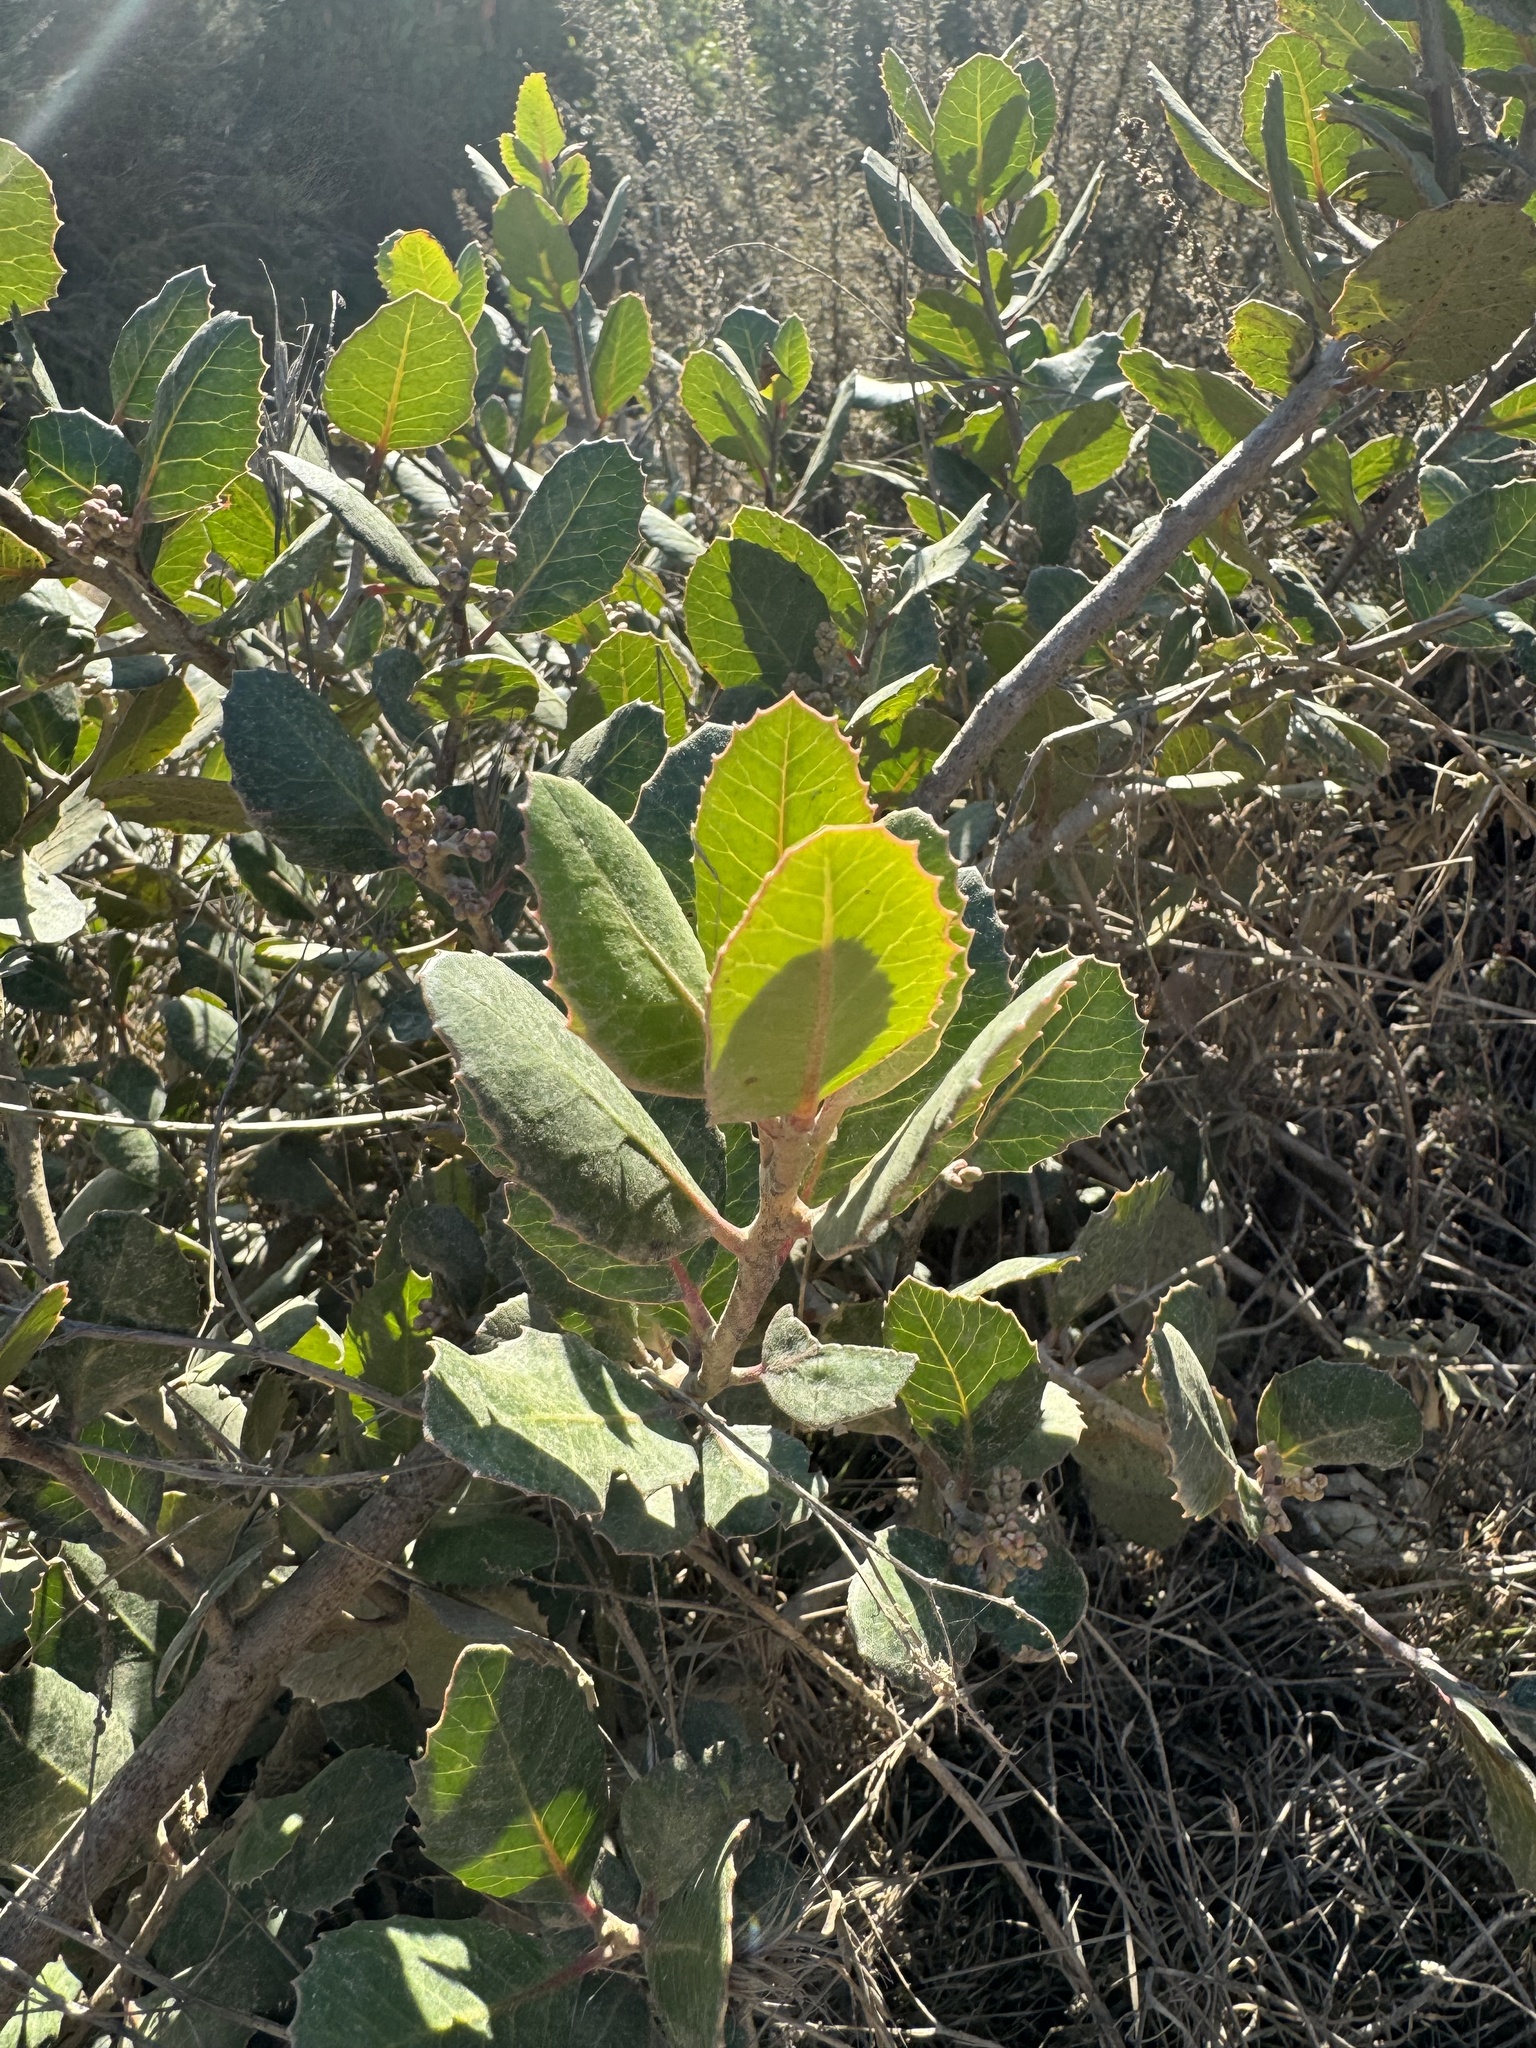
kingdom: Plantae
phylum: Tracheophyta
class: Magnoliopsida
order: Sapindales
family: Anacardiaceae
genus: Rhus
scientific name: Rhus integrifolia
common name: Lemonade sumac
